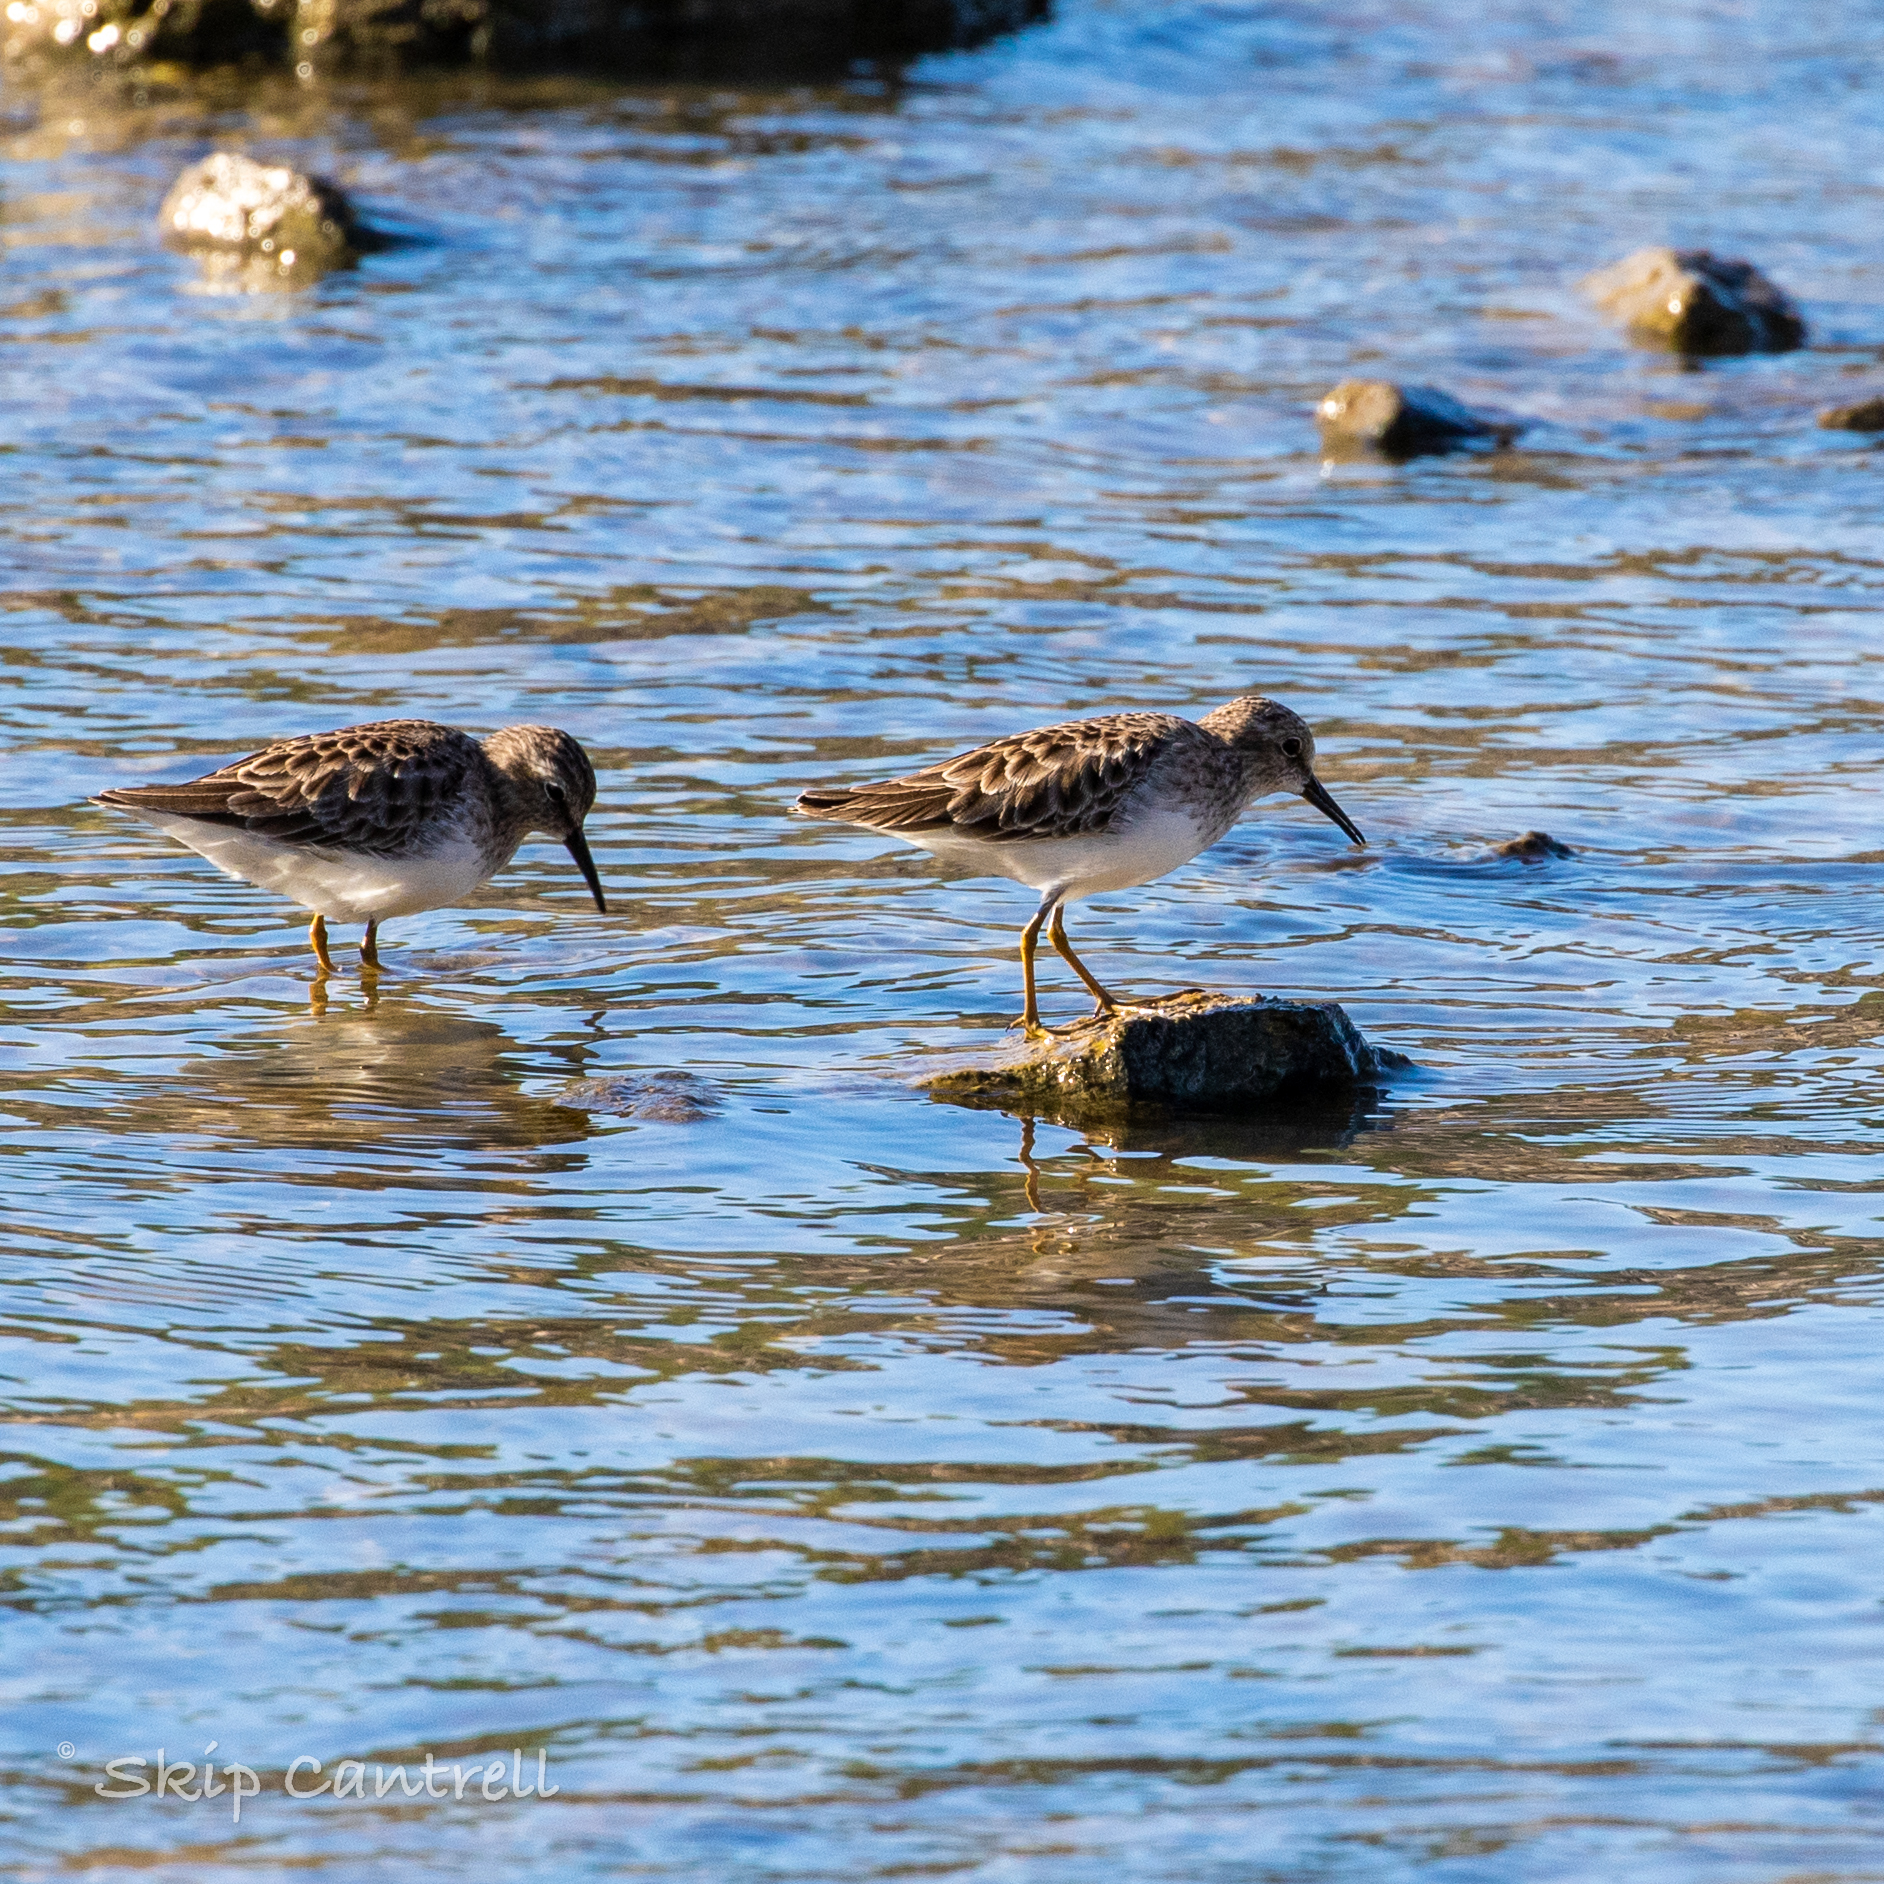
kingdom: Animalia
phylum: Chordata
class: Aves
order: Charadriiformes
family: Scolopacidae
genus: Calidris
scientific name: Calidris minutilla
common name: Least sandpiper
